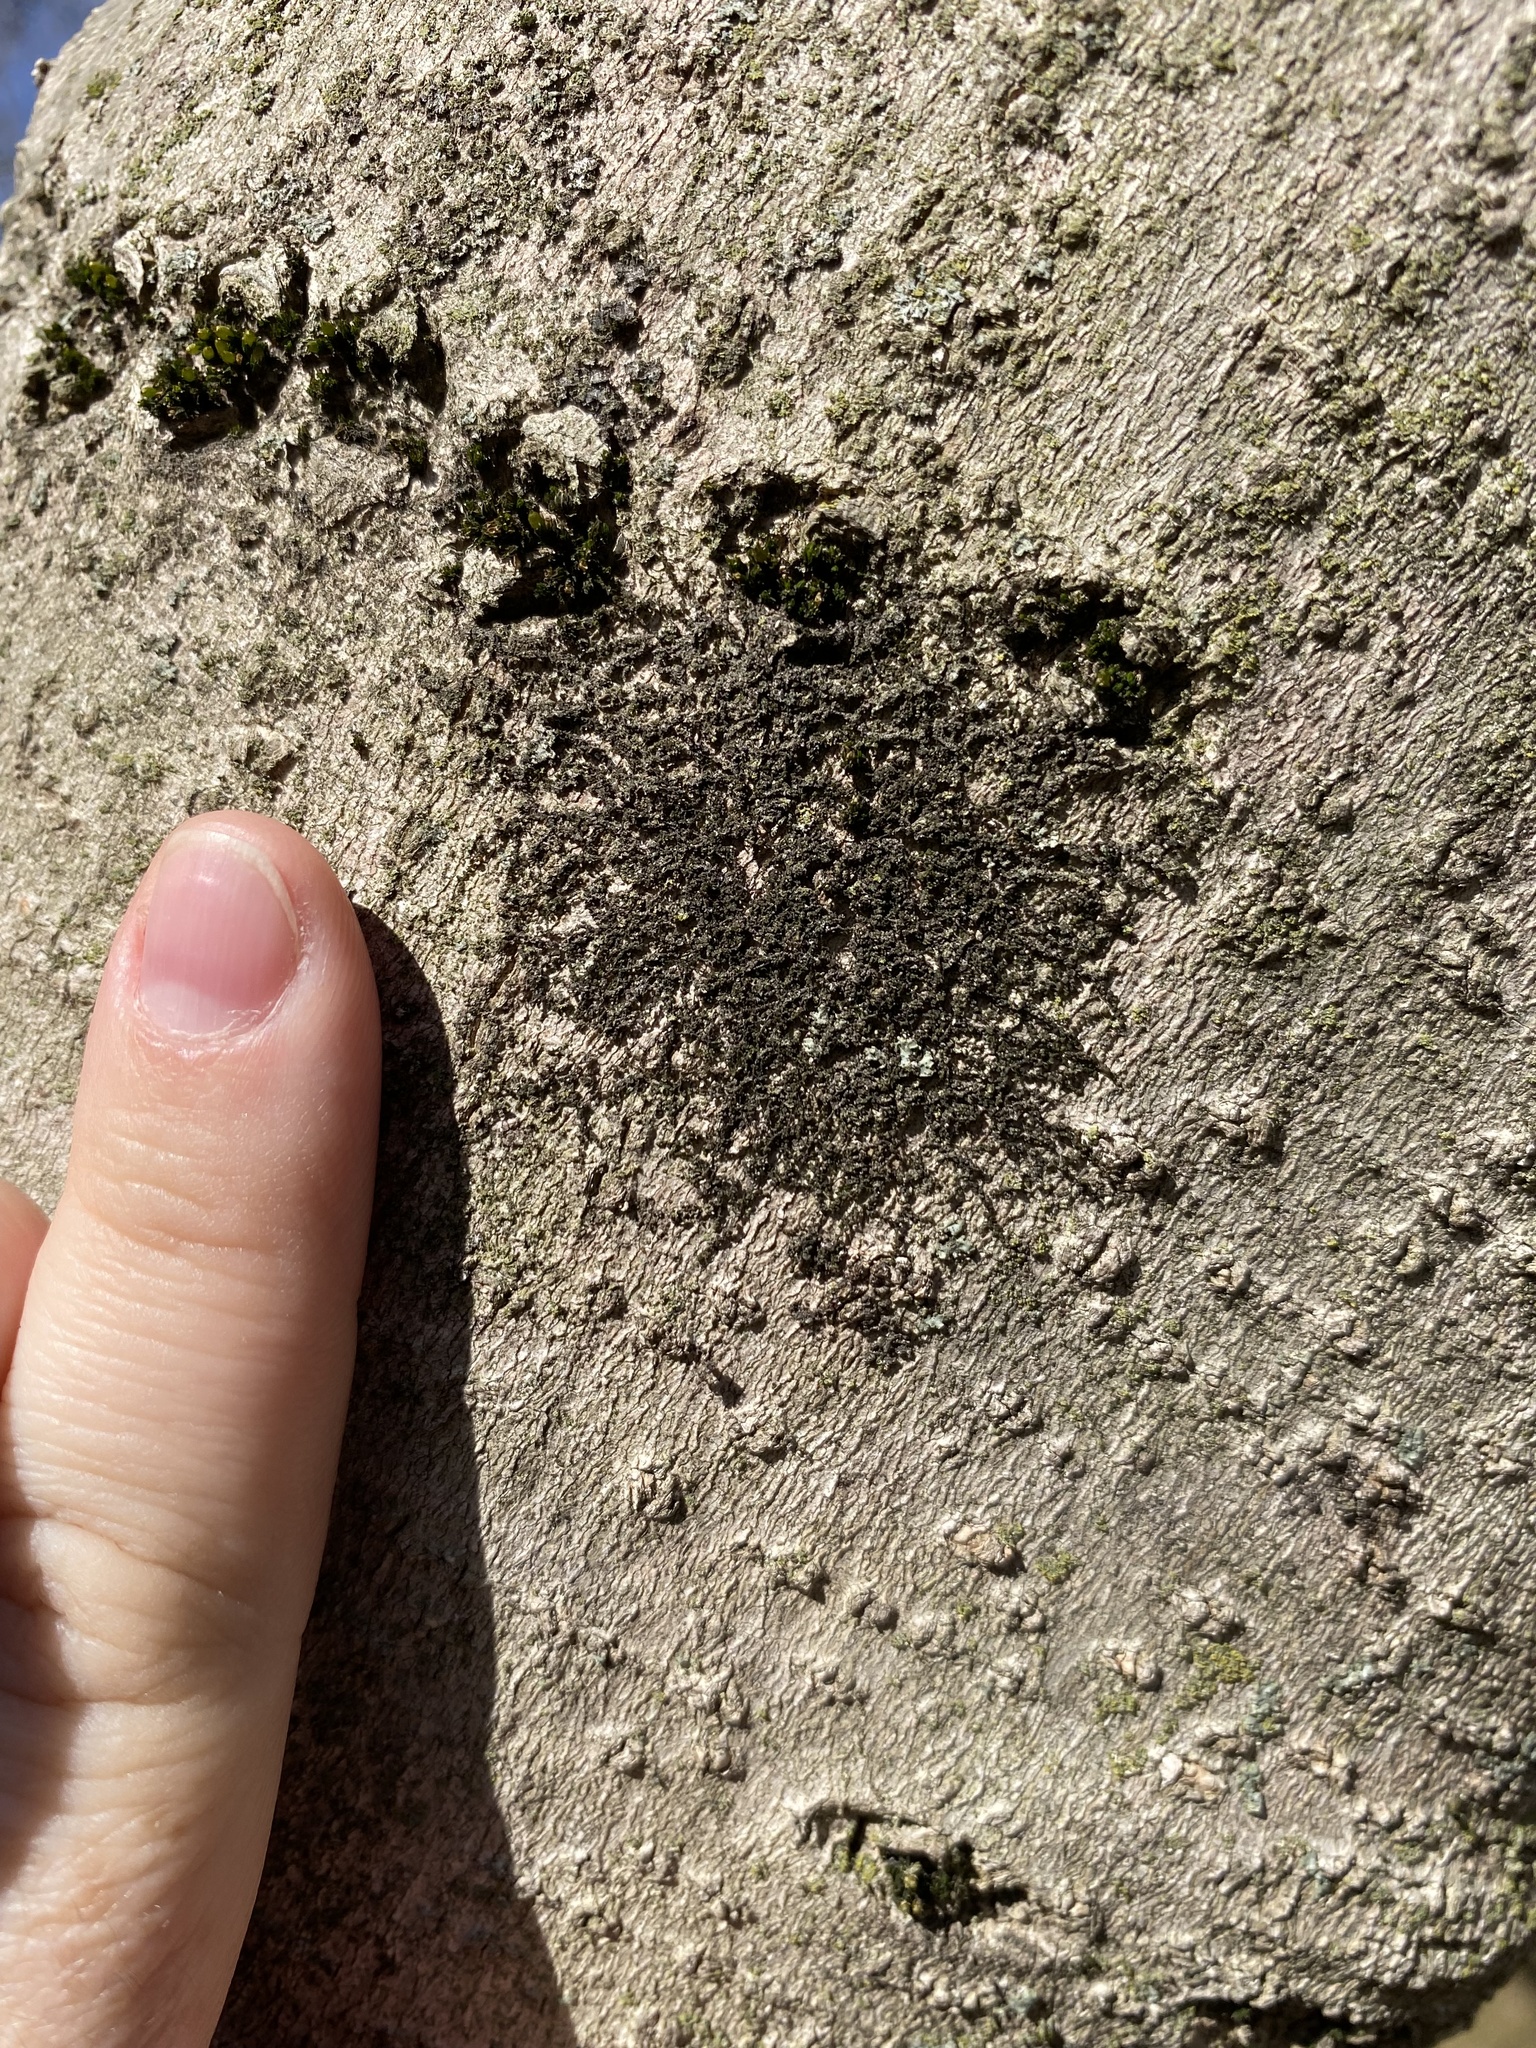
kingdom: Plantae
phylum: Marchantiophyta
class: Jungermanniopsida
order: Porellales
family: Frullaniaceae
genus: Frullania
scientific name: Frullania eboracensis
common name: New york scalewort
